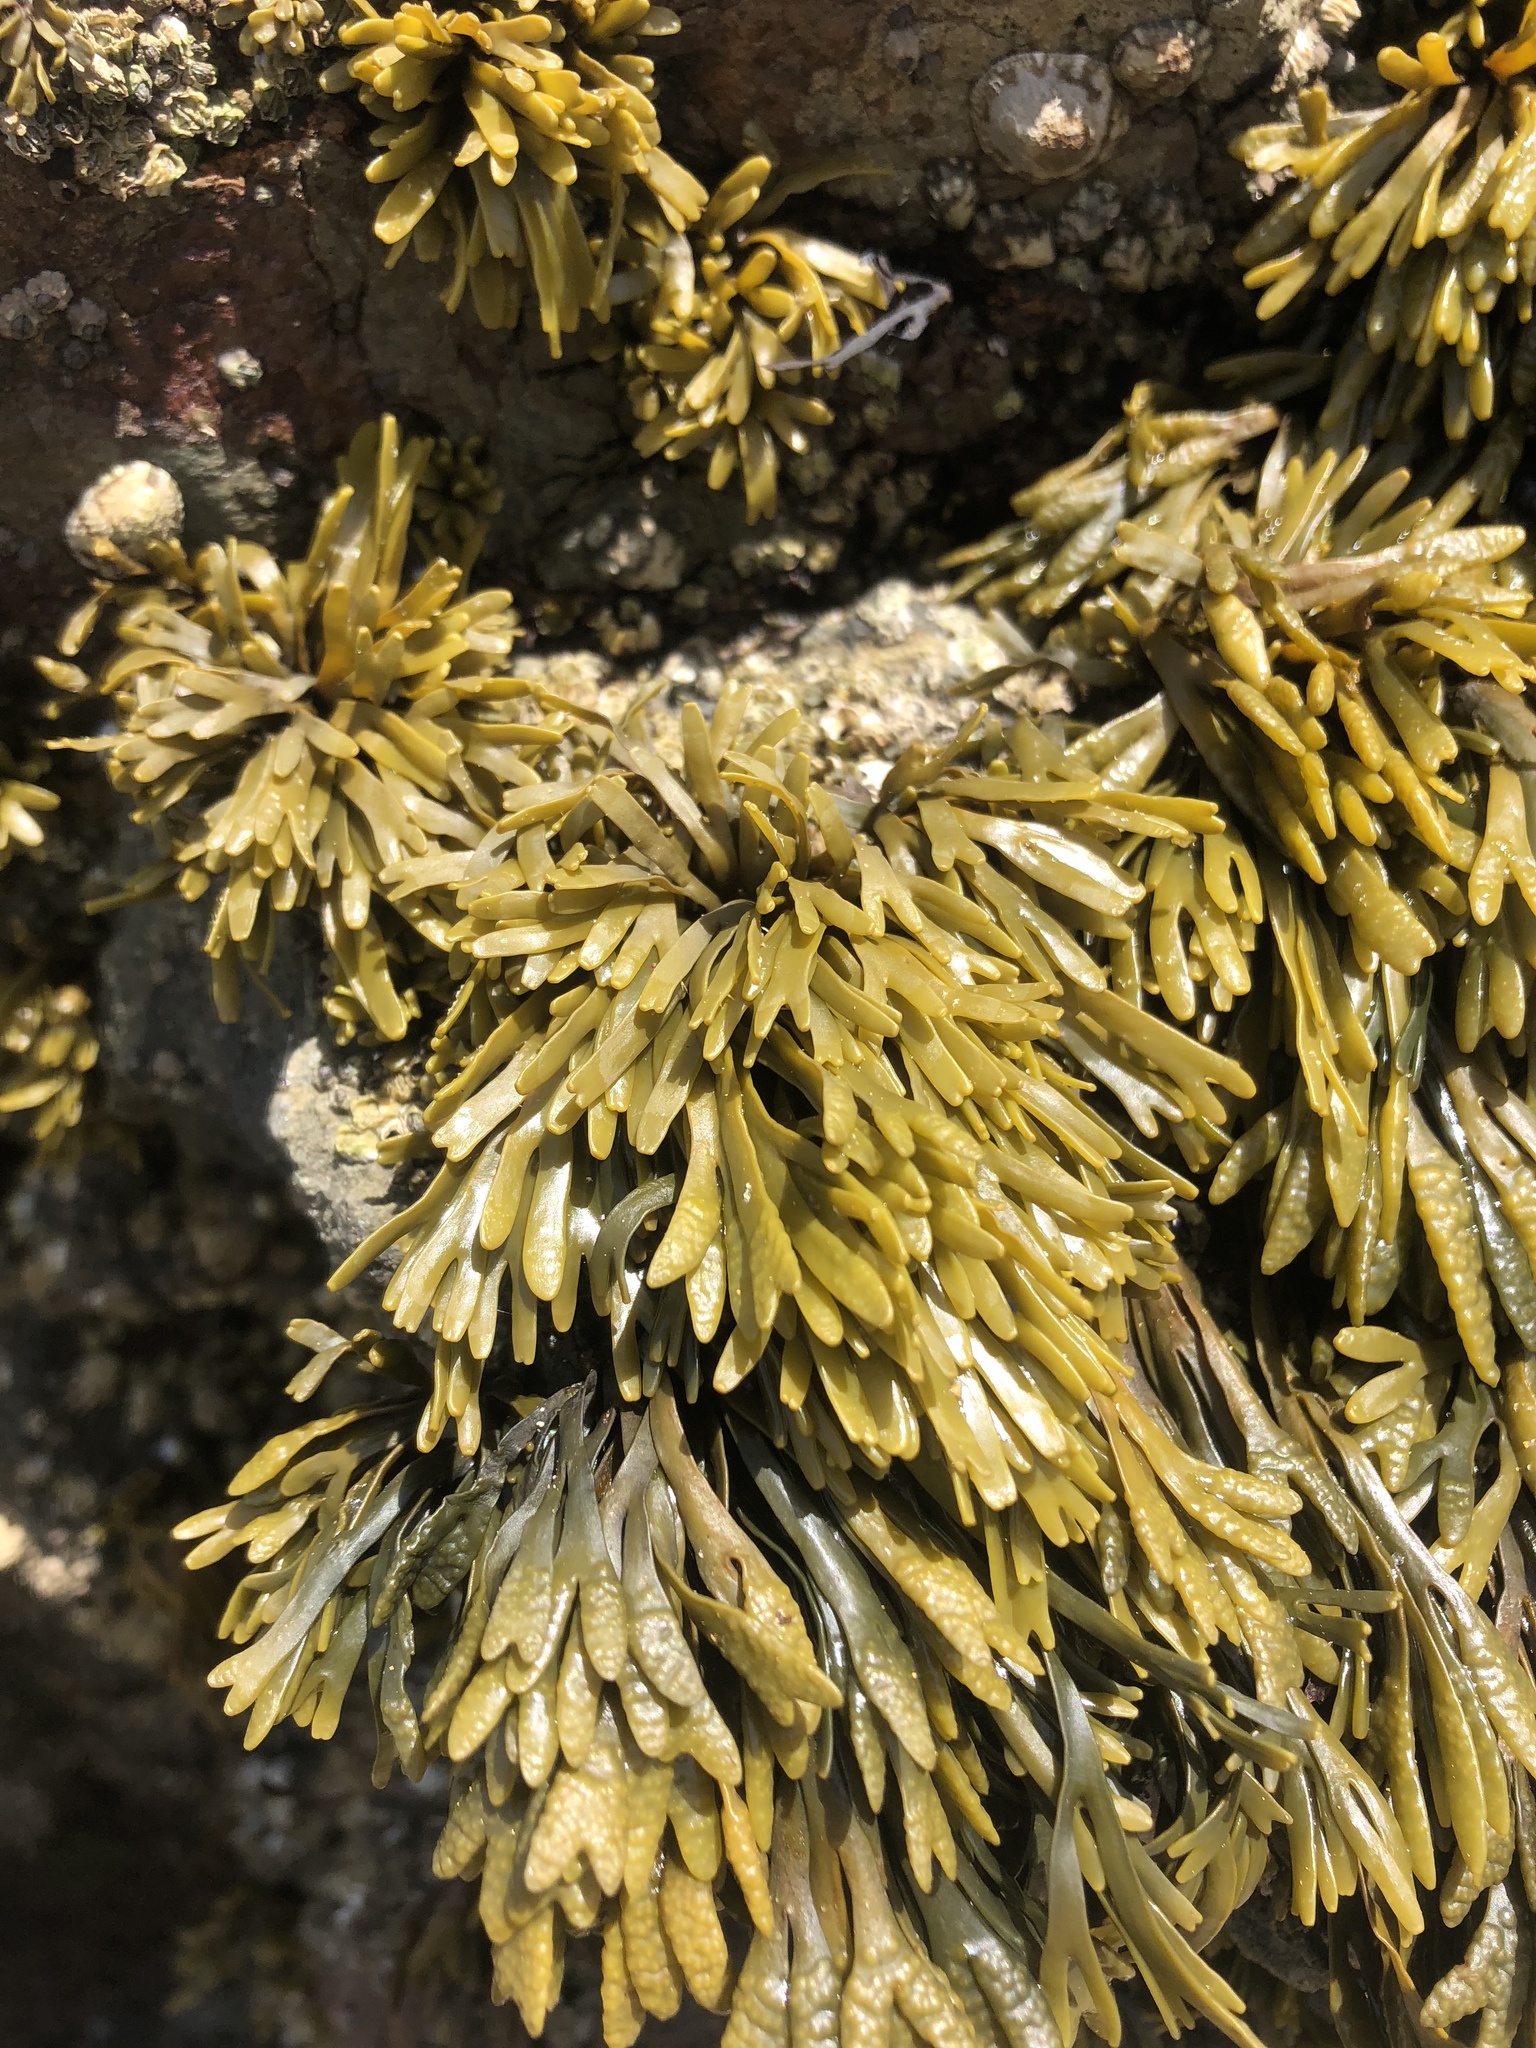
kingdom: Chromista
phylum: Ochrophyta
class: Phaeophyceae
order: Fucales
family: Fucaceae
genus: Pelvetiopsis
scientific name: Pelvetiopsis limitata
